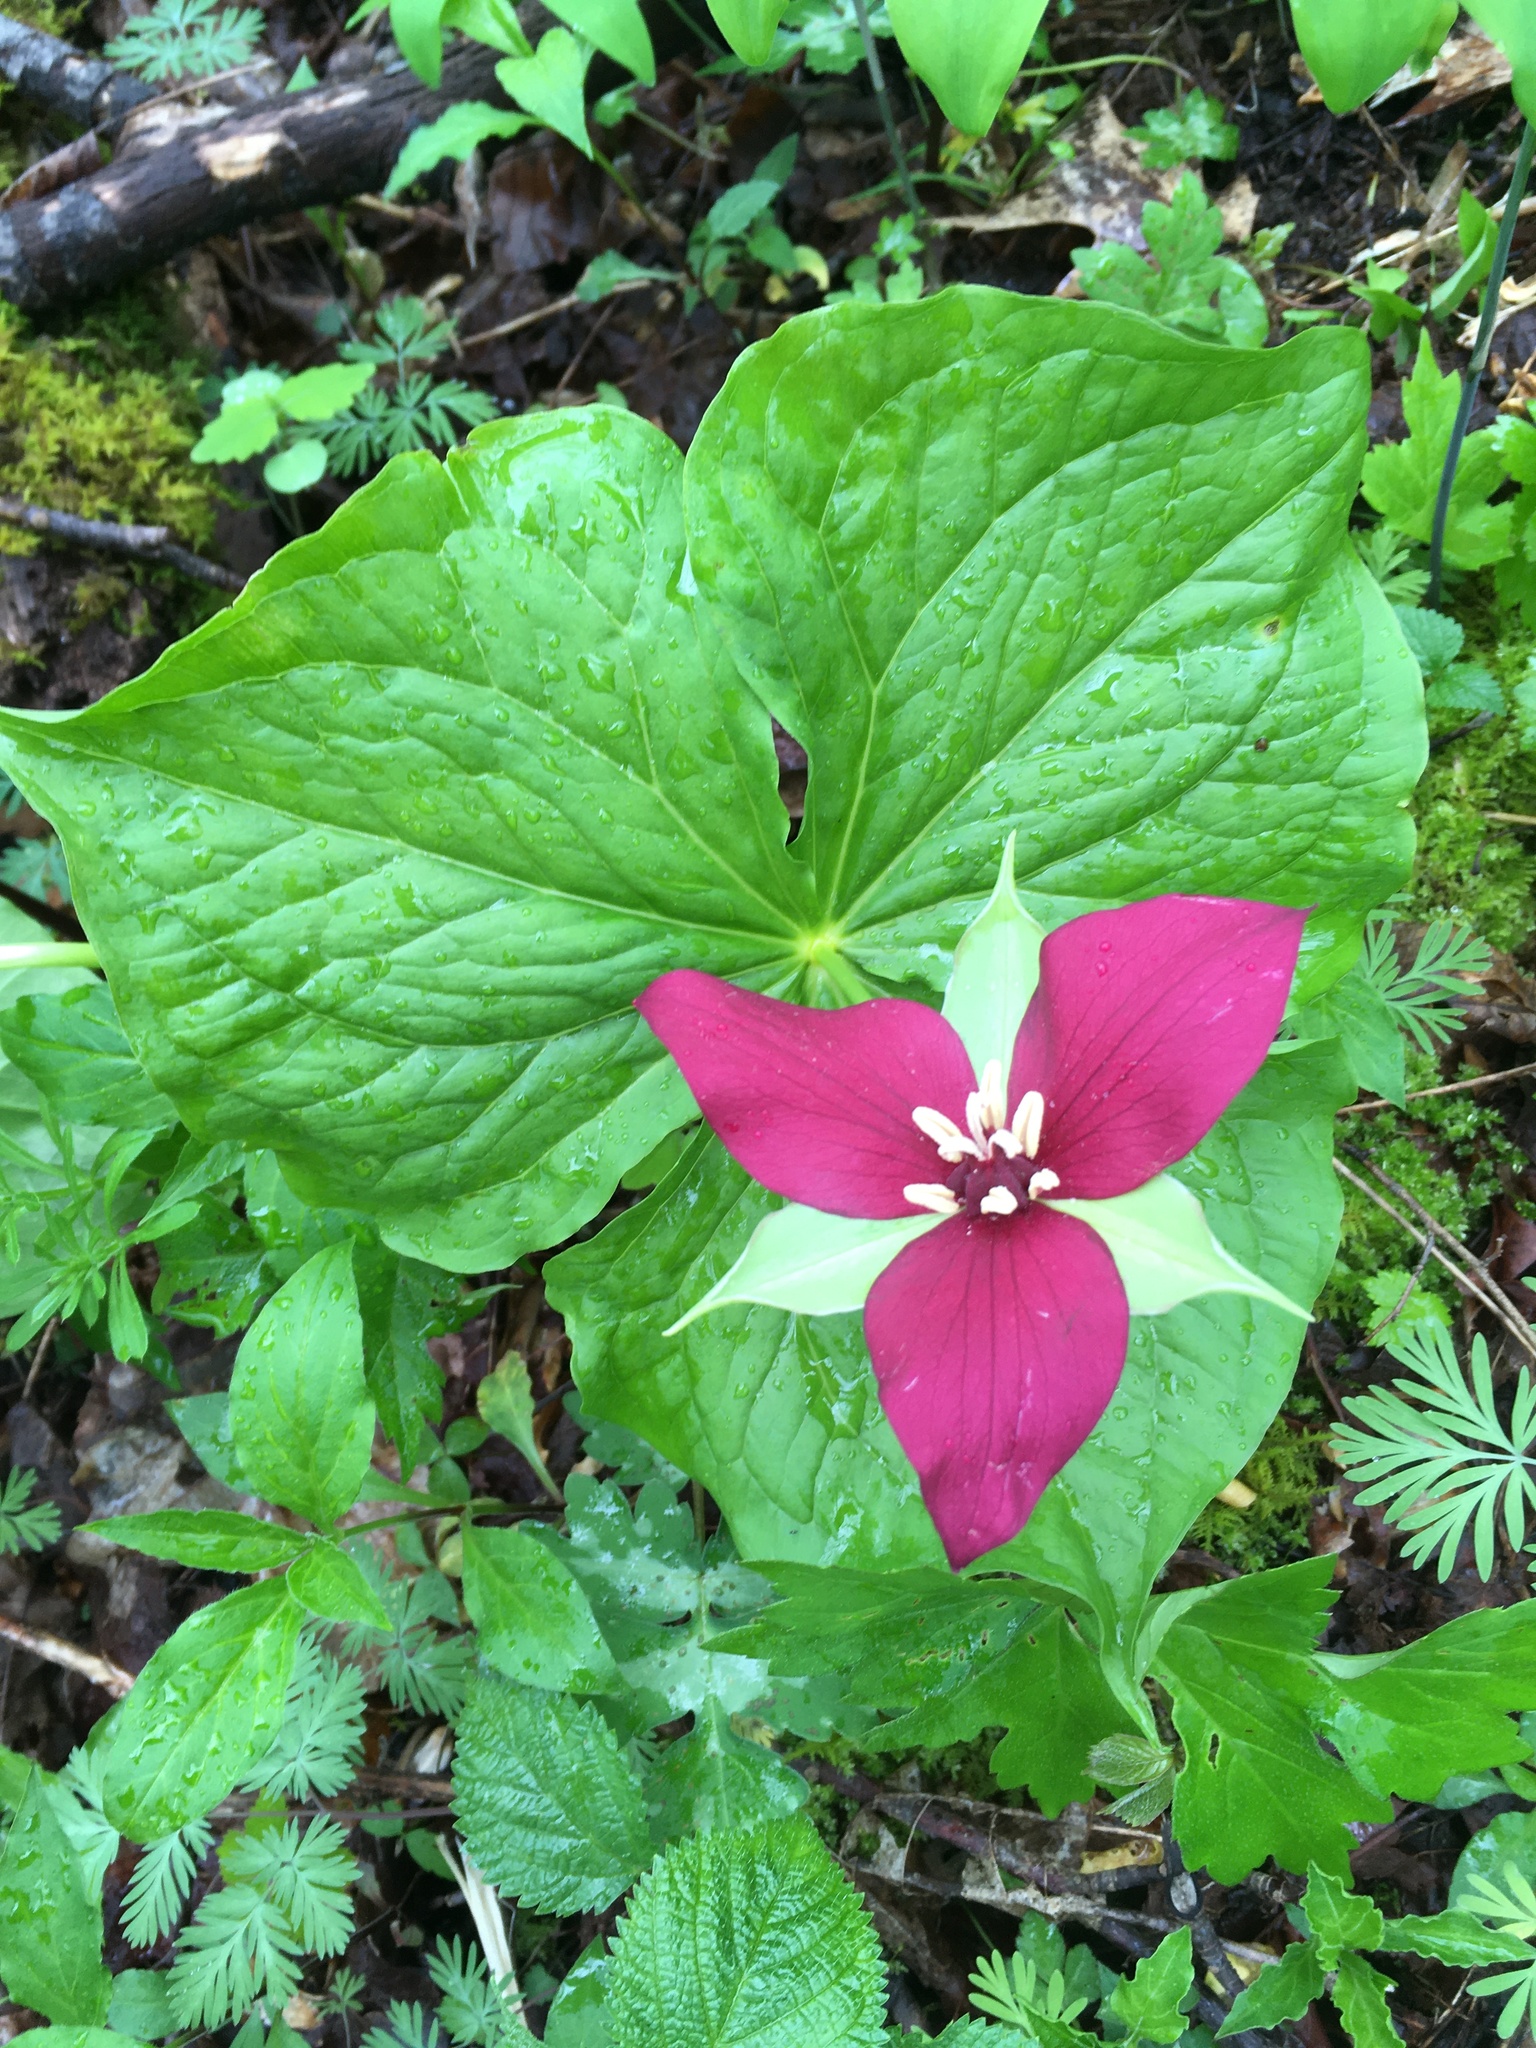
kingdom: Plantae
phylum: Tracheophyta
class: Liliopsida
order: Liliales
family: Melanthiaceae
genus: Trillium
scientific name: Trillium erectum
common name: Purple trillium
